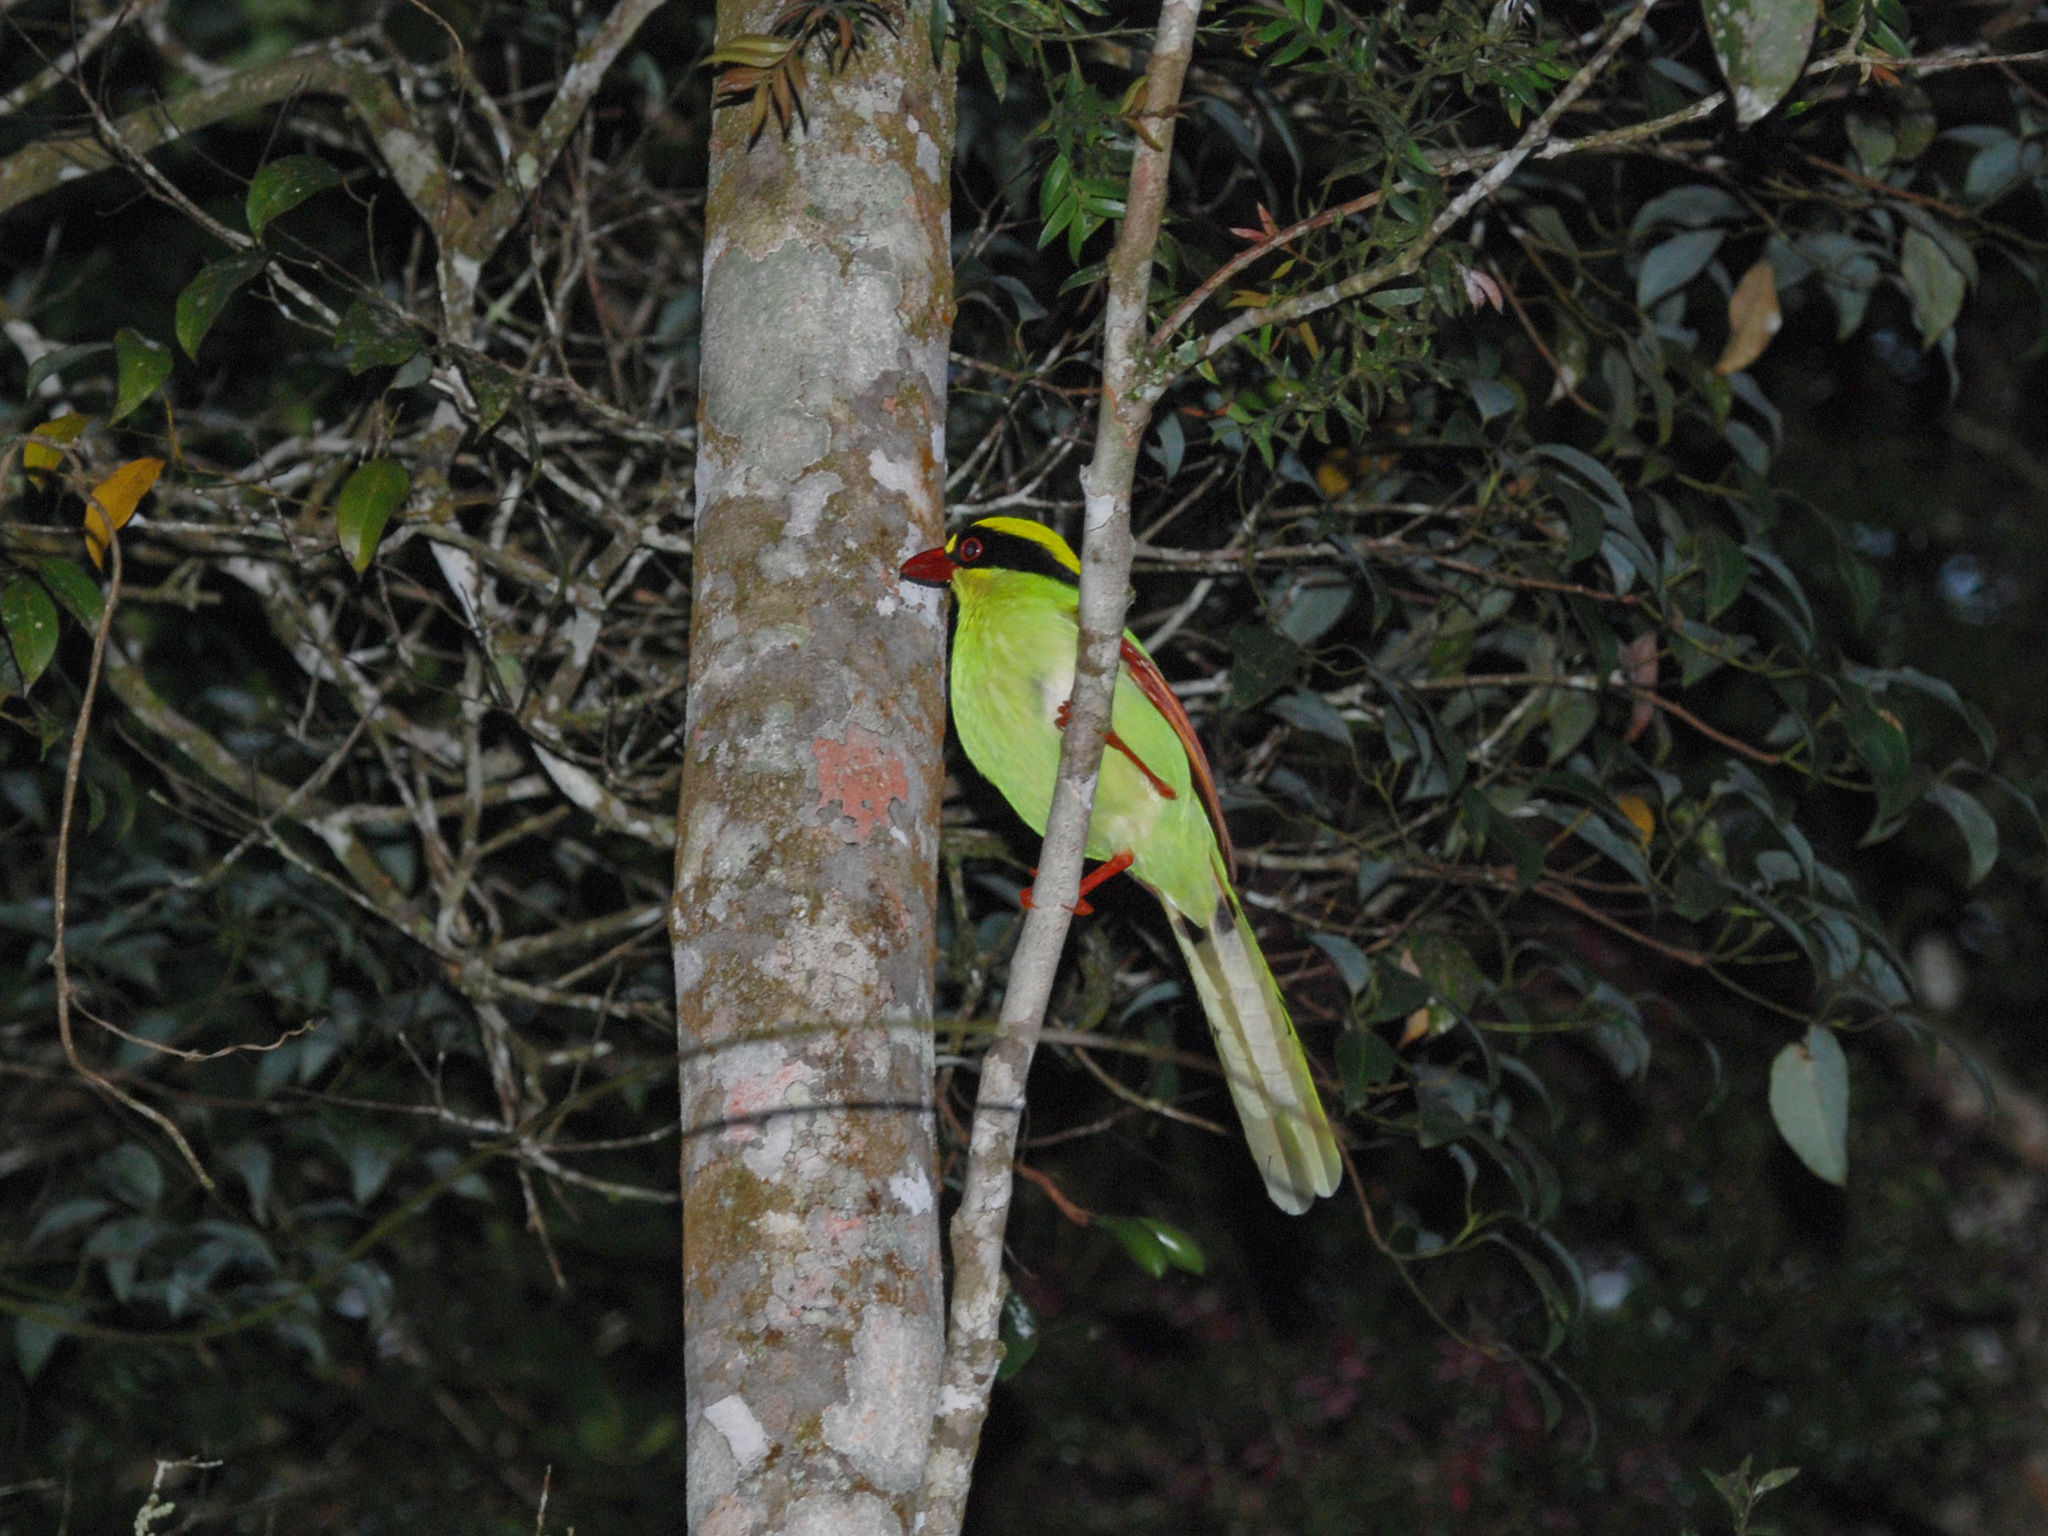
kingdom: Animalia
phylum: Chordata
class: Aves
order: Passeriformes
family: Corvidae
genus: Cissa
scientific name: Cissa chinensis
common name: Common green magpie
